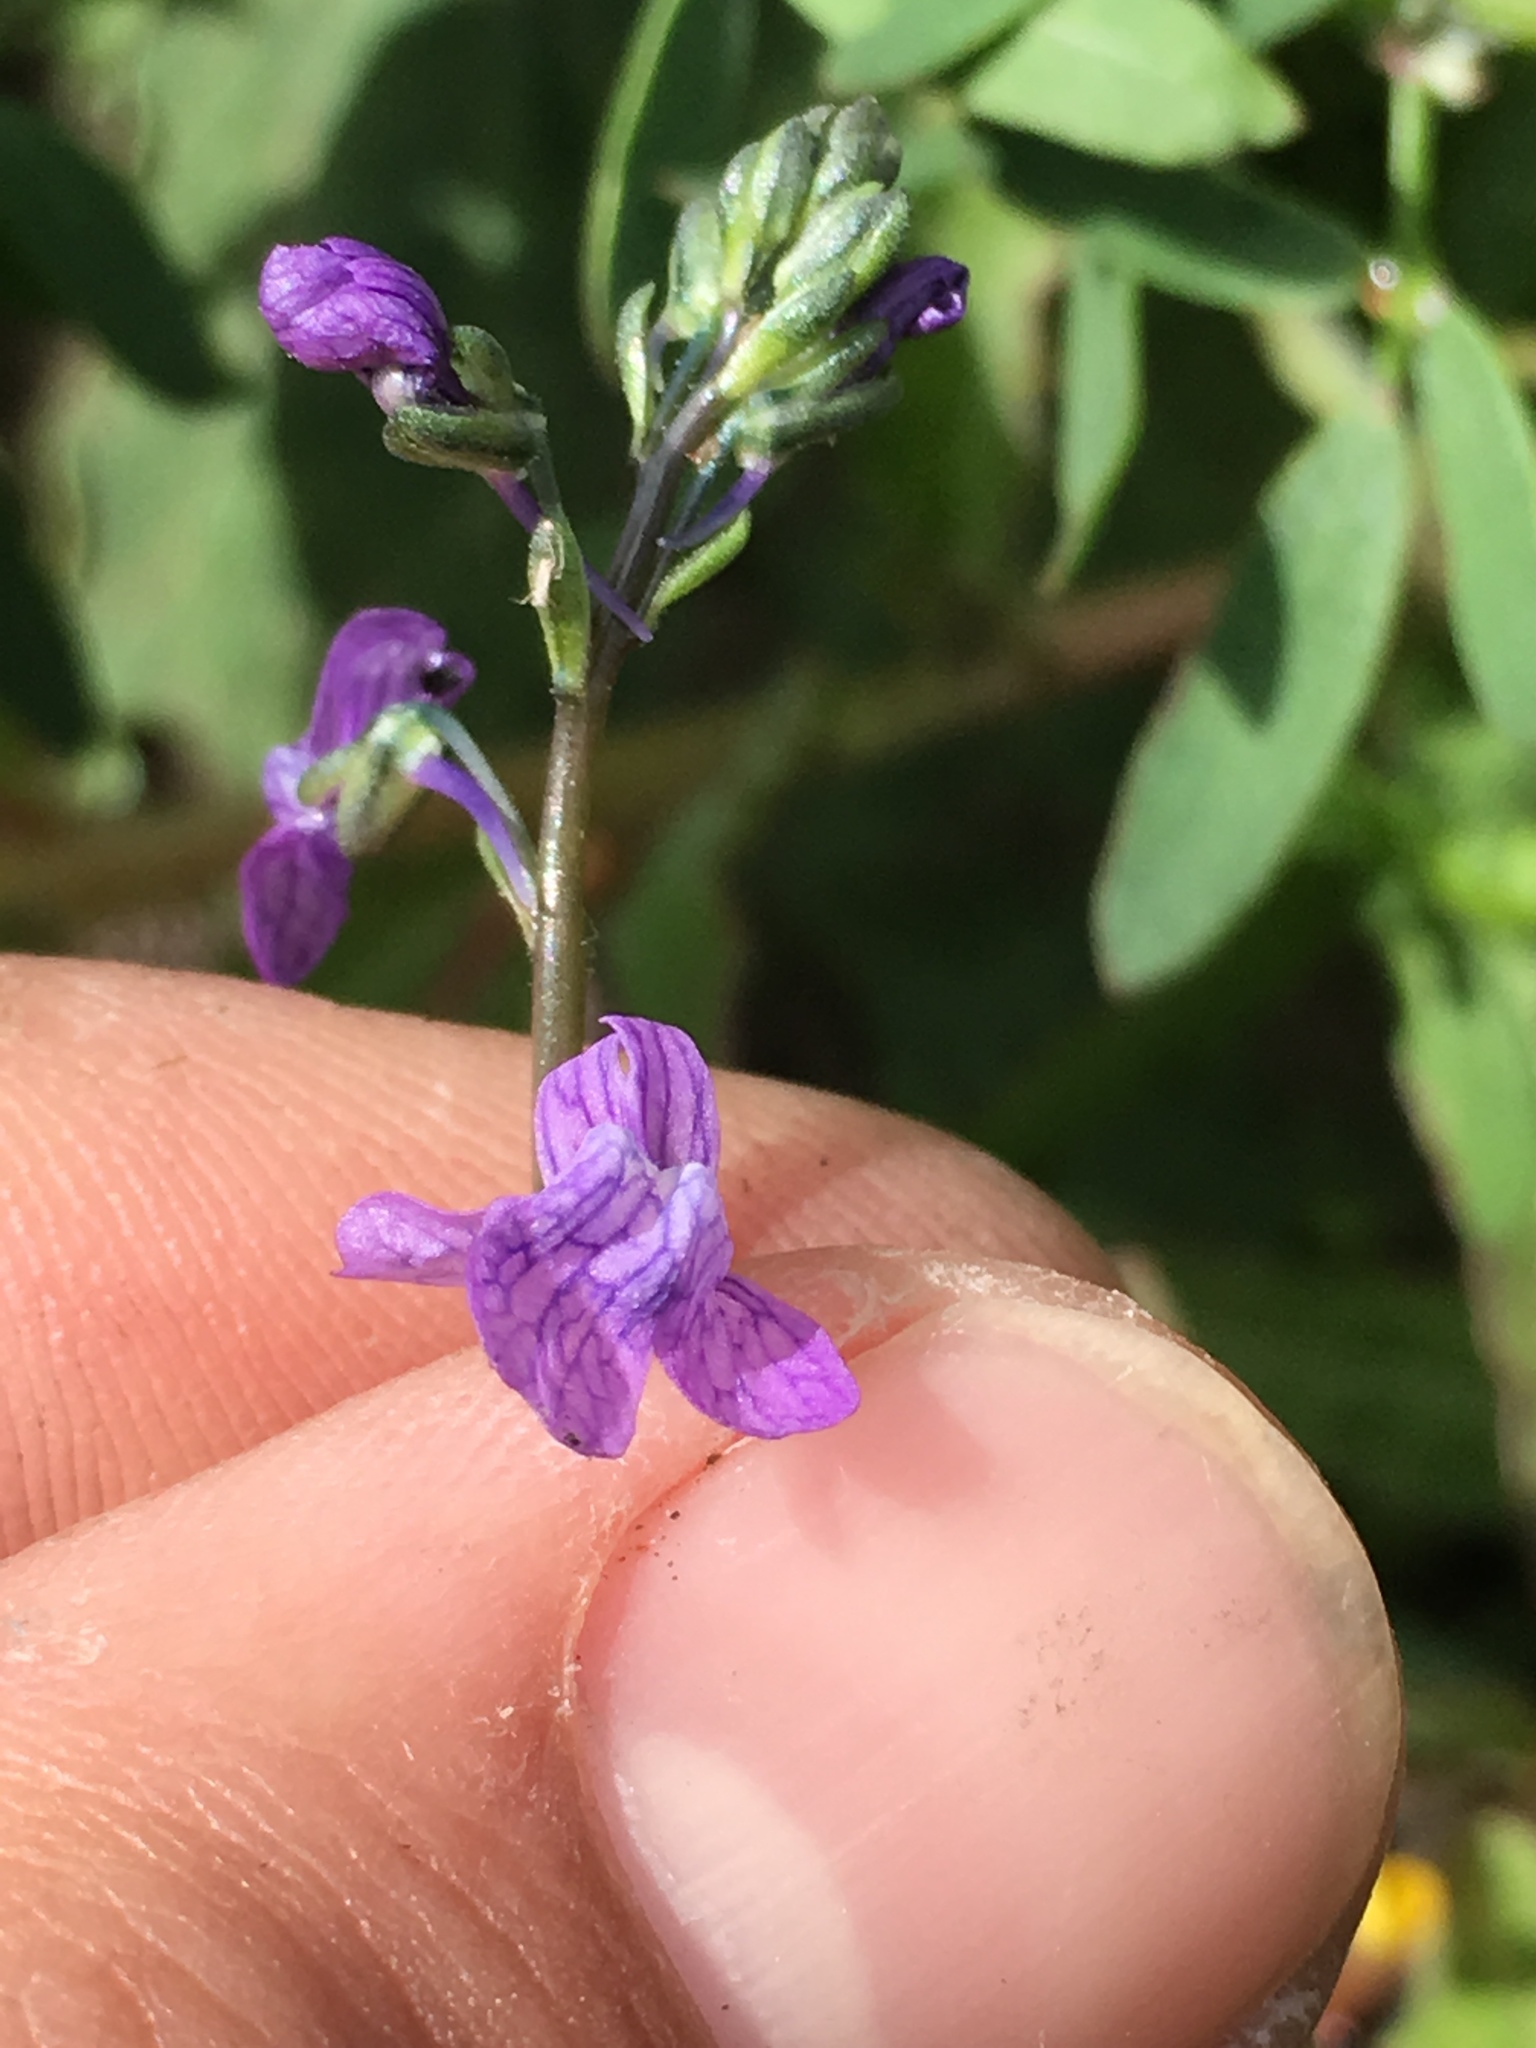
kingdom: Plantae
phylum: Tracheophyta
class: Magnoliopsida
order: Lamiales
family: Plantaginaceae
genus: Nuttallanthus
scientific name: Nuttallanthus texanus
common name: Texas toadflax
